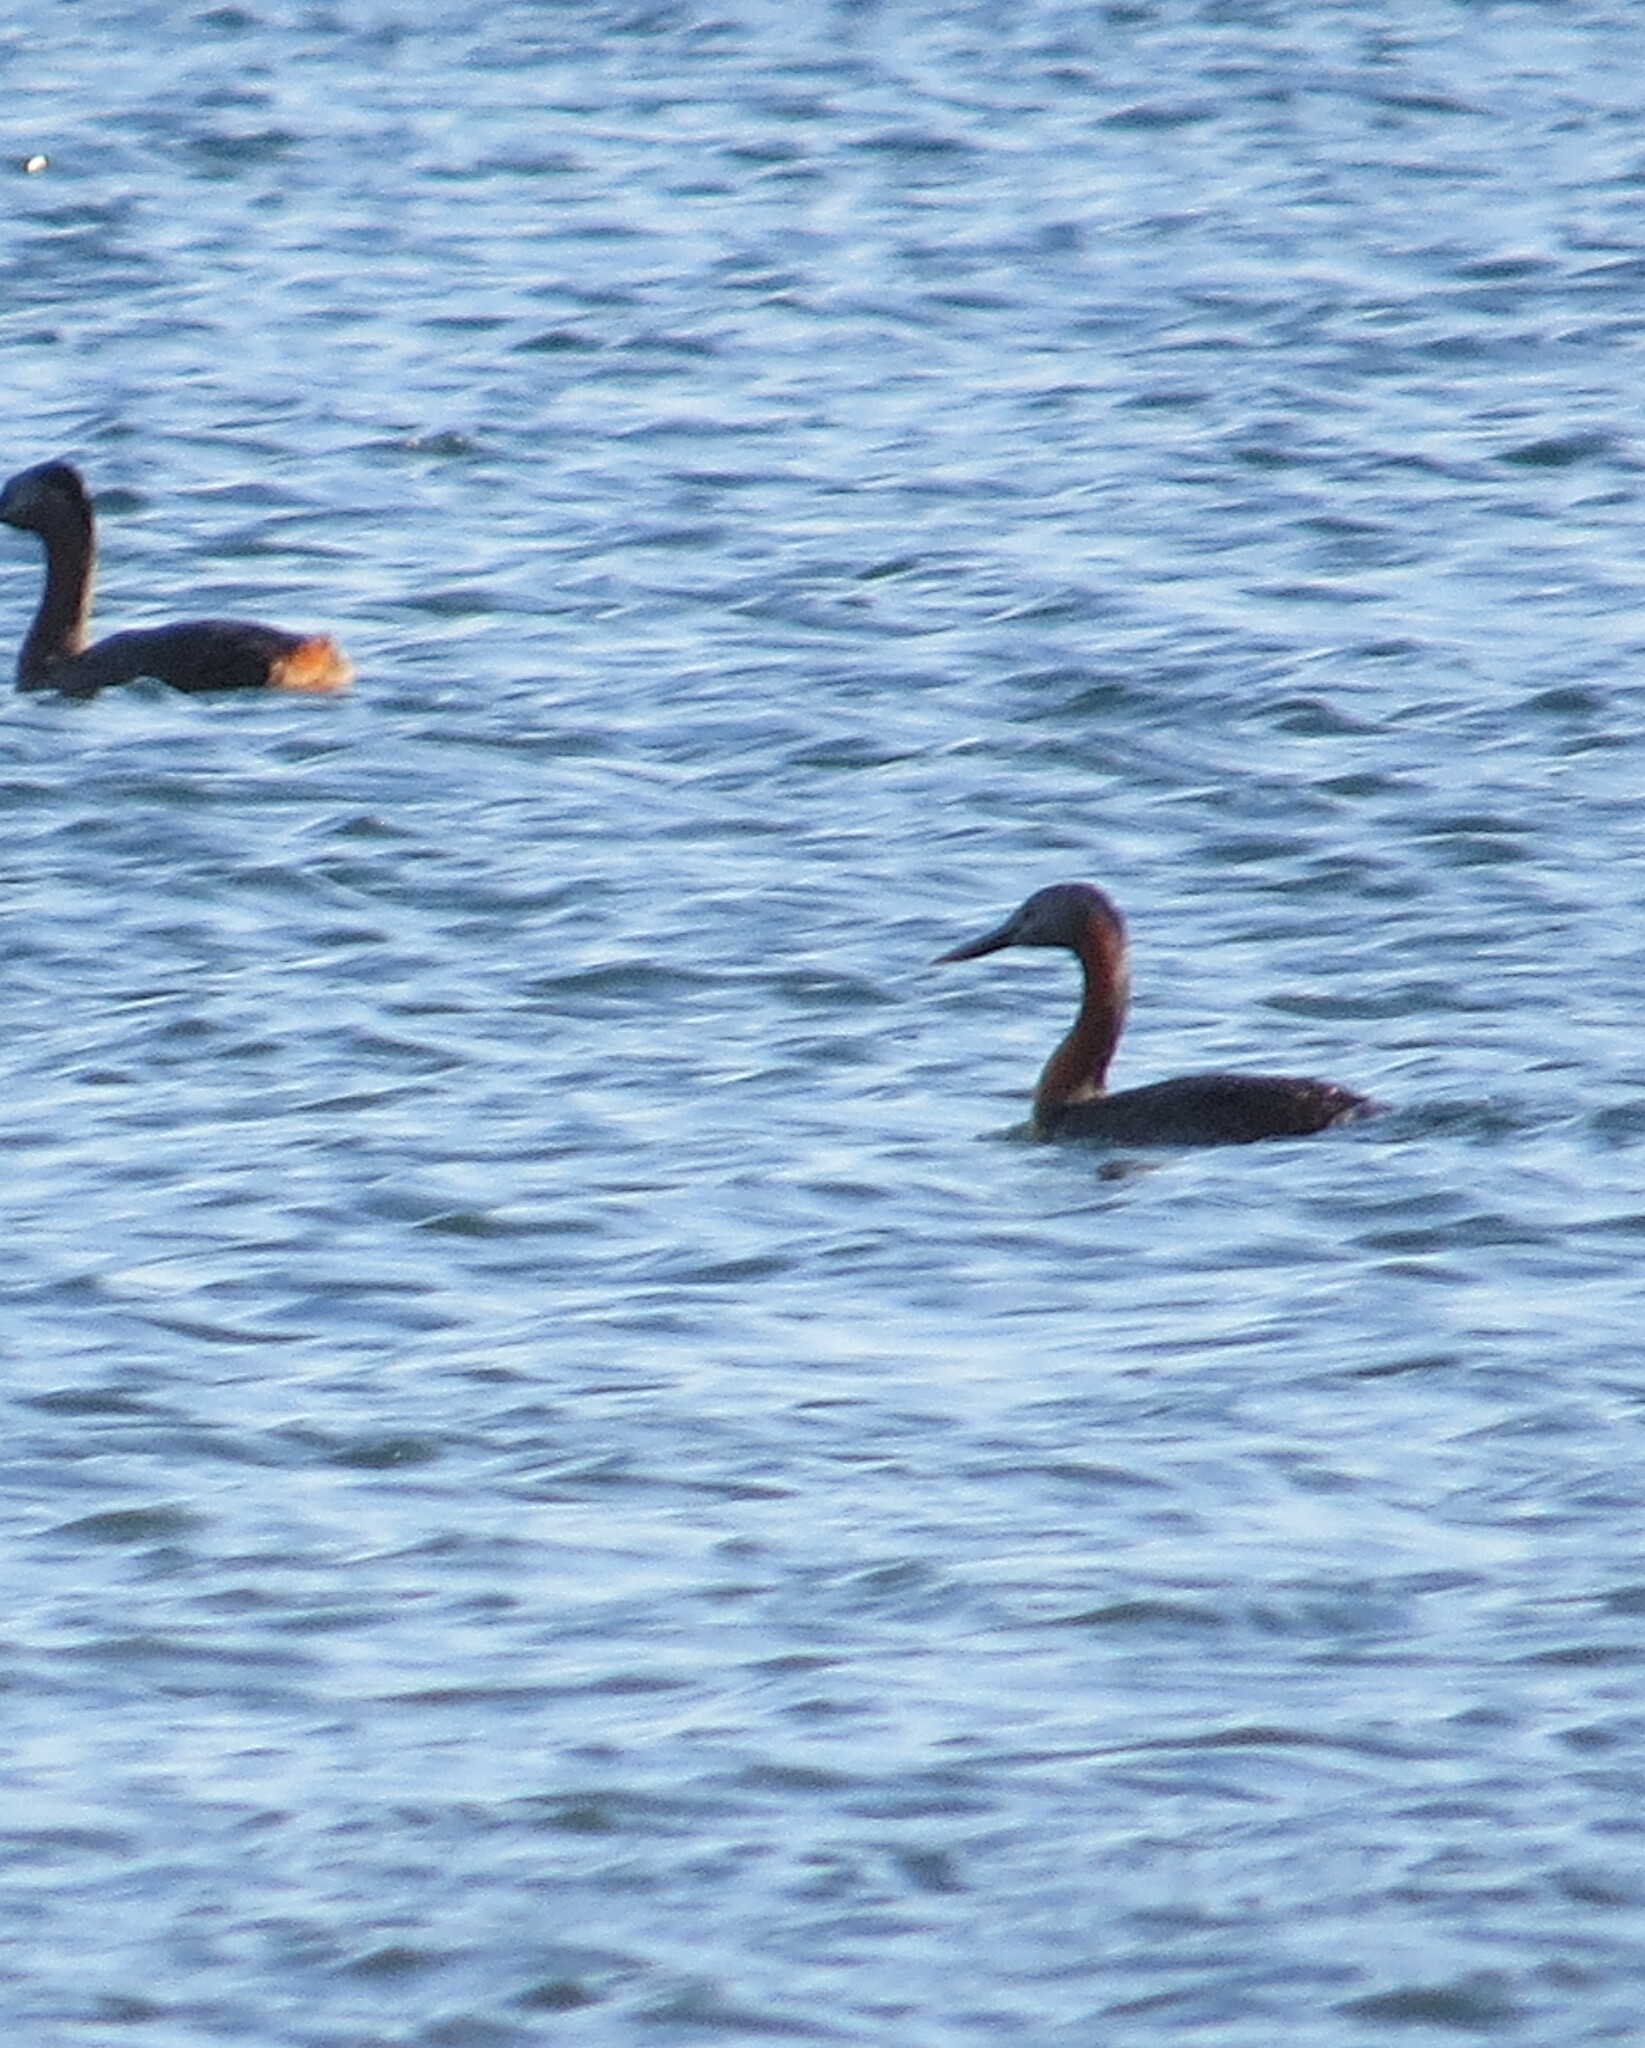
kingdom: Animalia
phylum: Chordata
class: Aves
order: Podicipediformes
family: Podicipedidae
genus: Podiceps
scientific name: Podiceps major
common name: Great grebe
